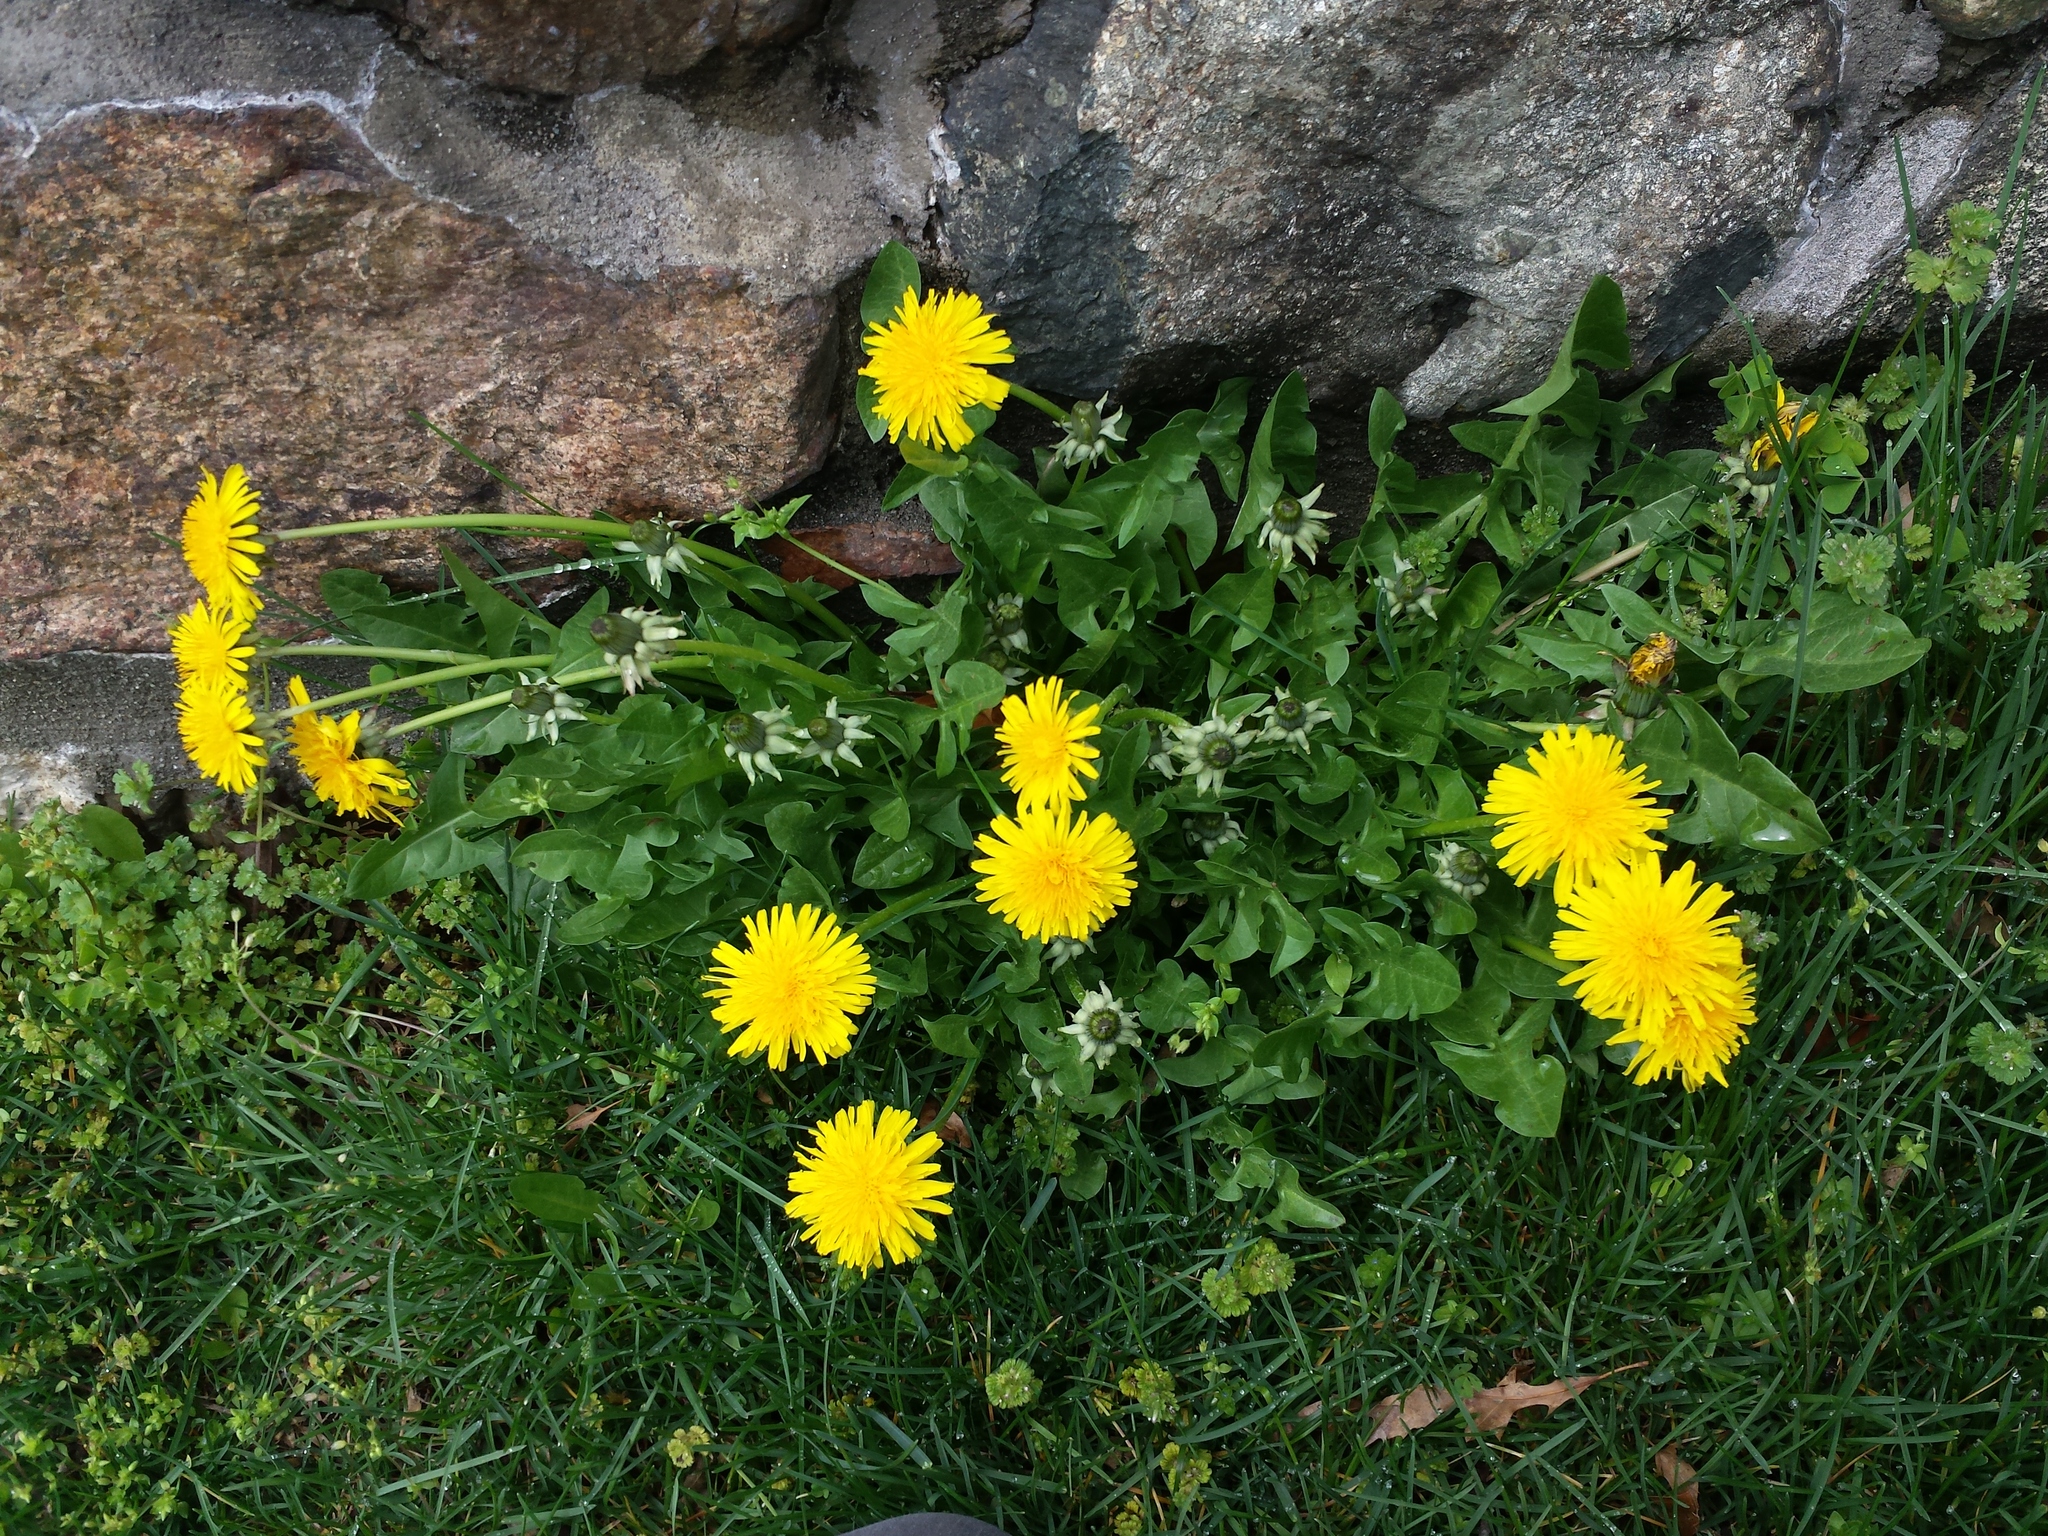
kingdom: Plantae
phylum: Tracheophyta
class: Magnoliopsida
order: Asterales
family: Asteraceae
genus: Taraxacum
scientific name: Taraxacum officinale
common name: Common dandelion
